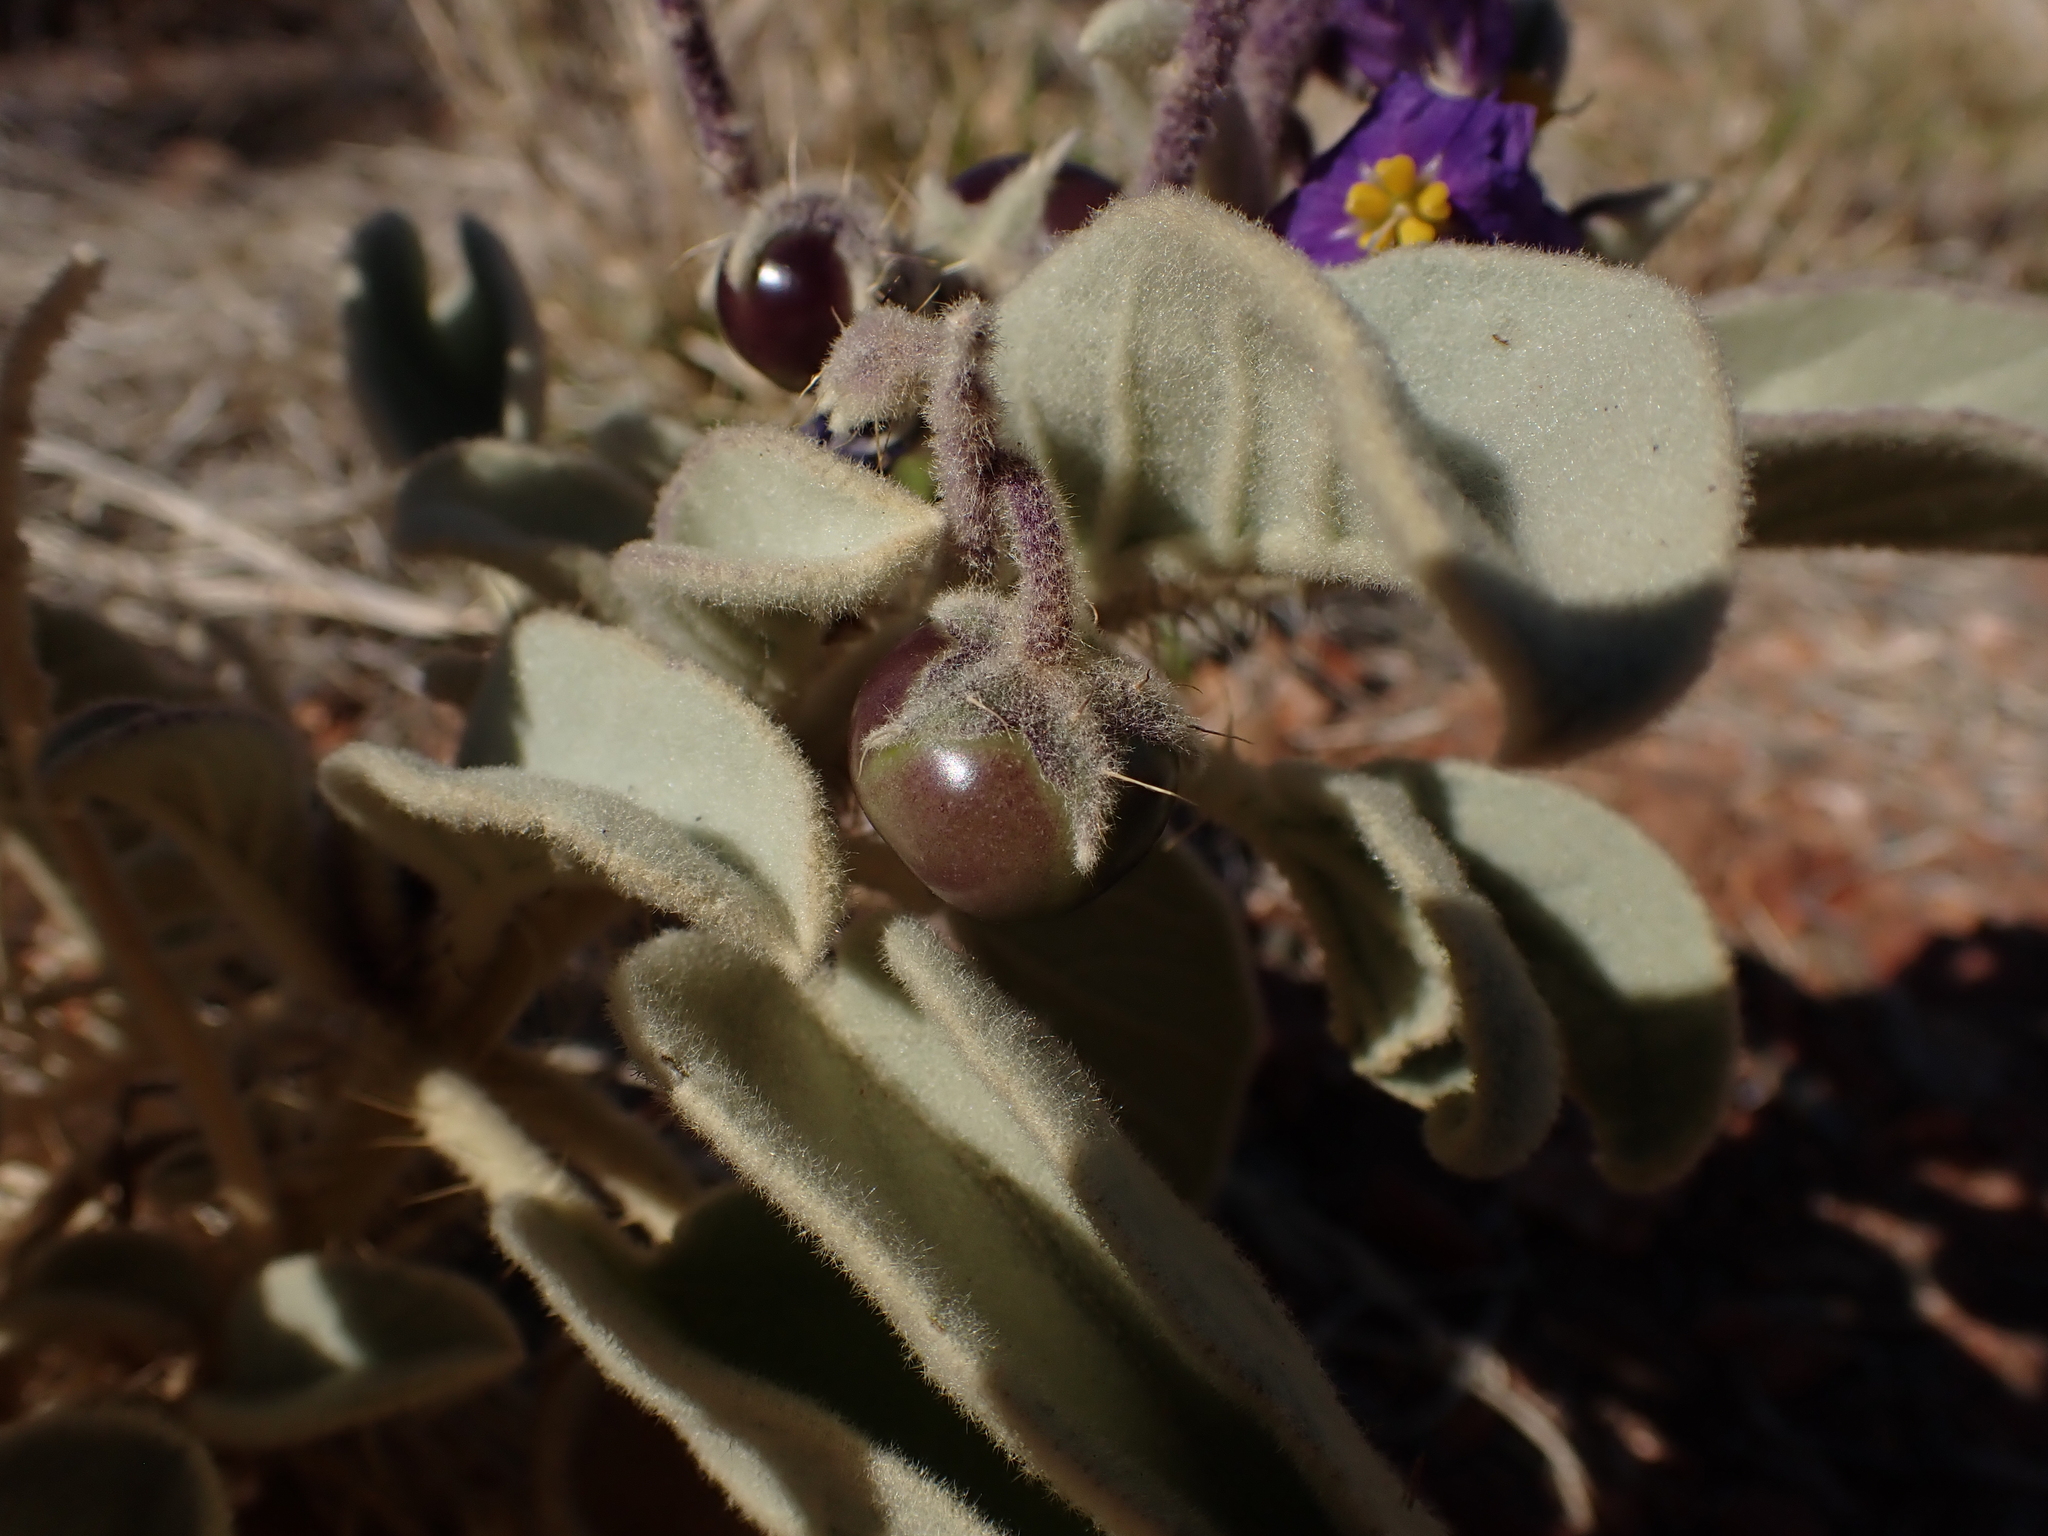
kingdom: Plantae
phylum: Tracheophyta
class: Magnoliopsida
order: Solanales
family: Solanaceae
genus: Solanum
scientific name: Solanum quadriloculatum
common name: Wild tomato
